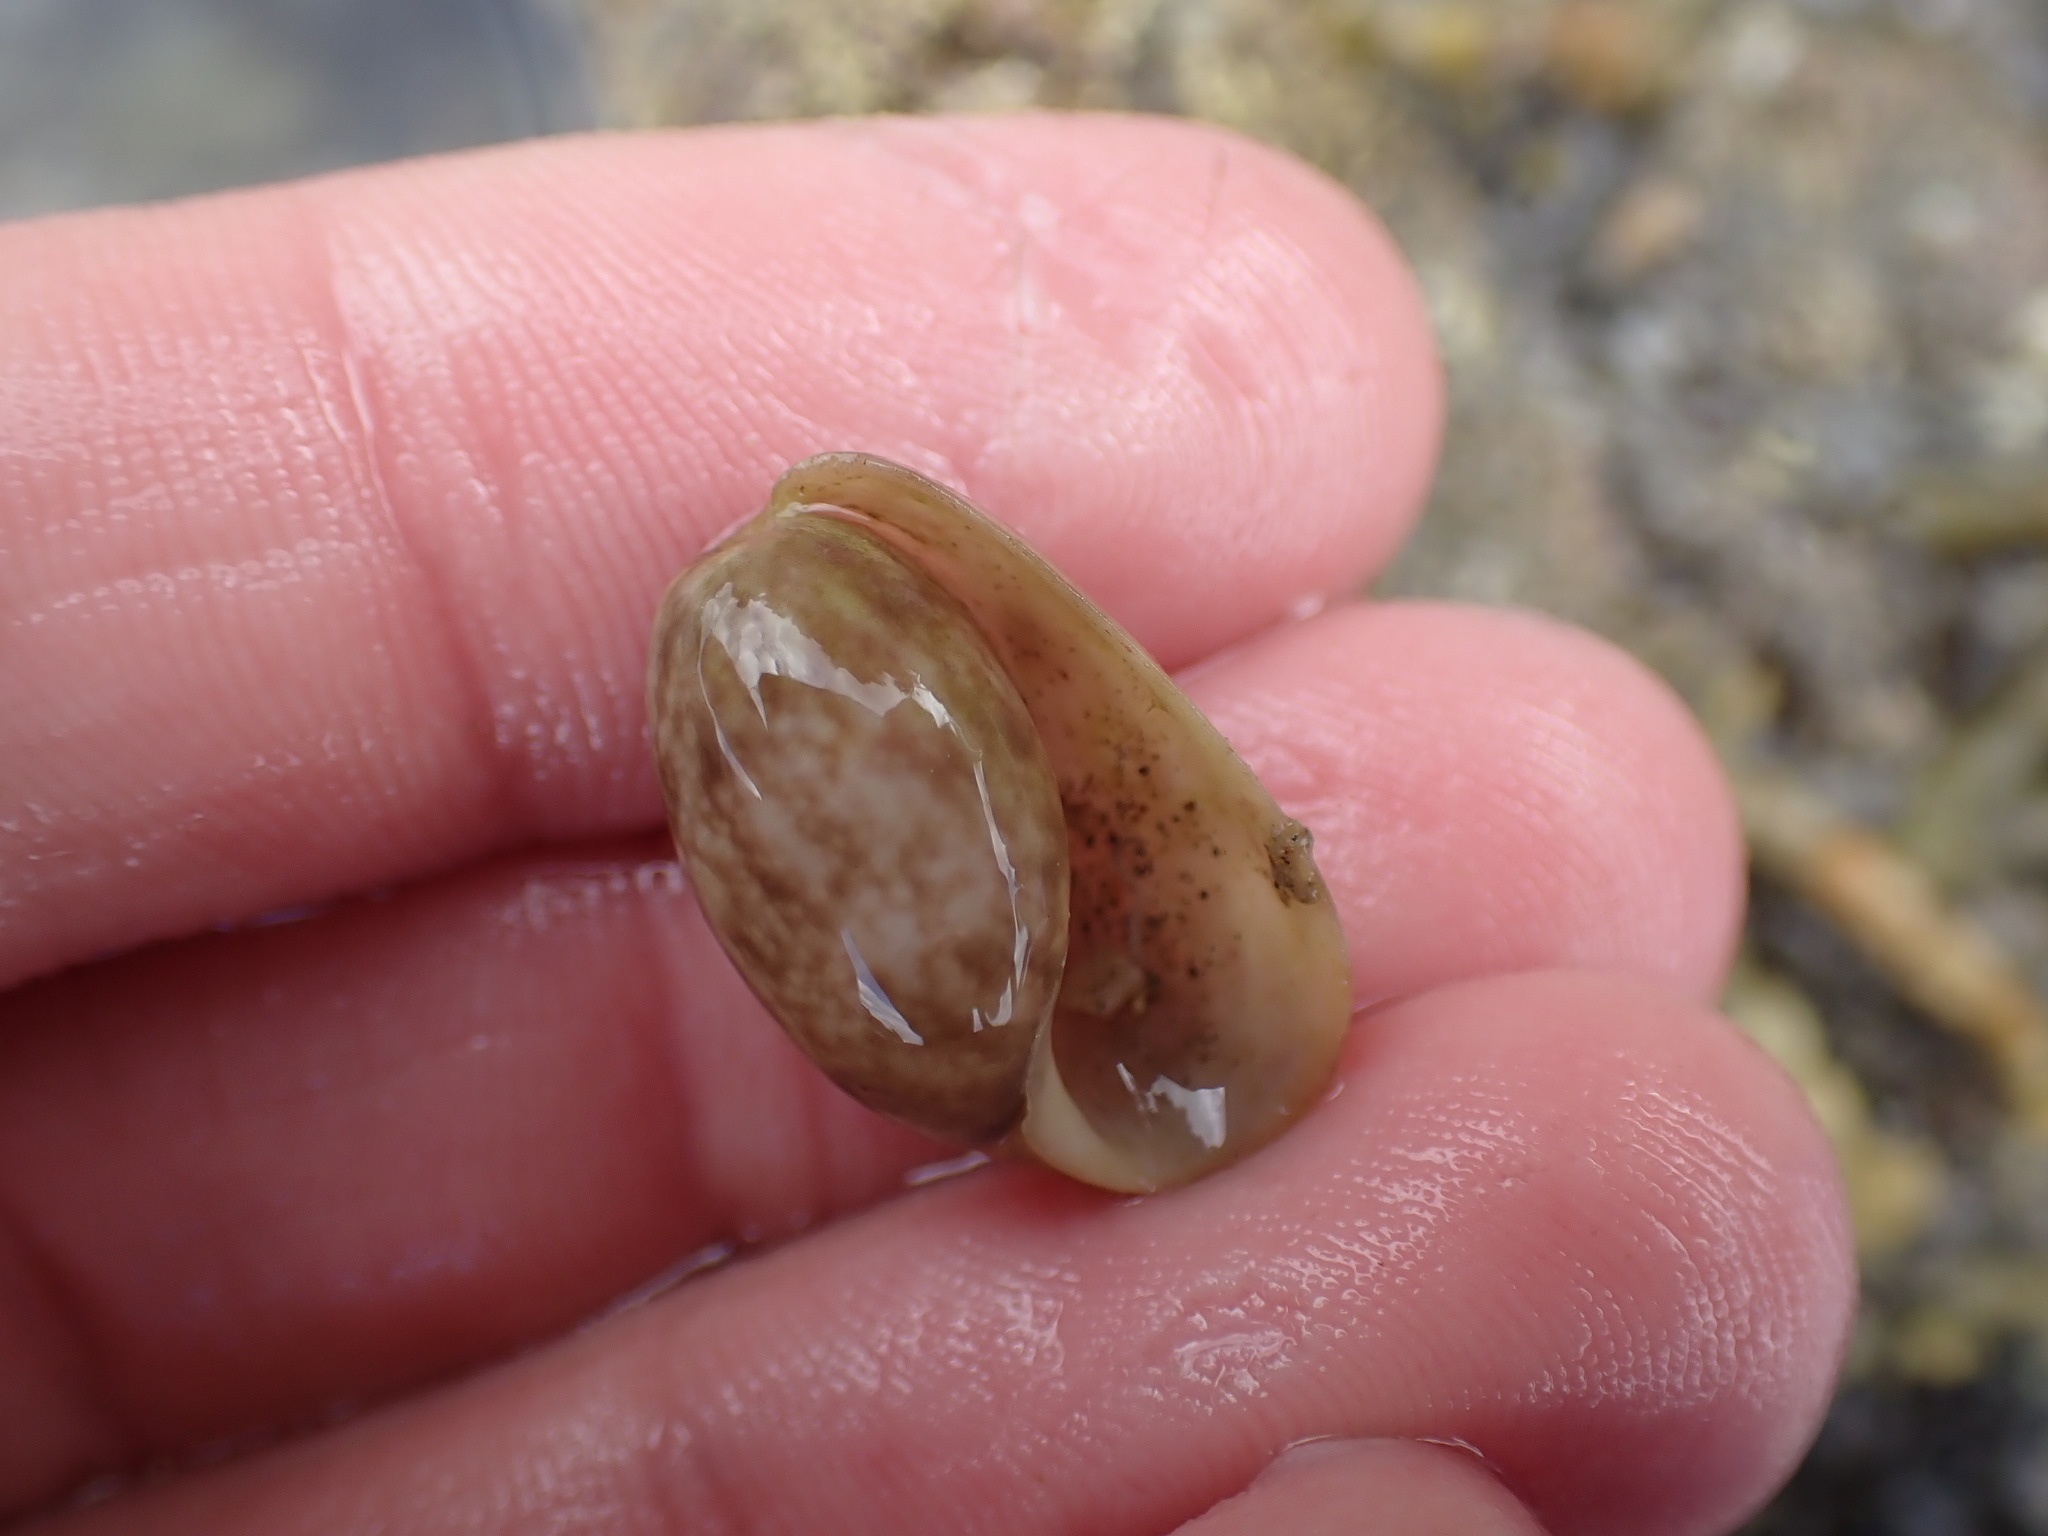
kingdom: Animalia
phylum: Mollusca
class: Gastropoda
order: Cephalaspidea
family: Bullidae
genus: Bulla
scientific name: Bulla quoyii
